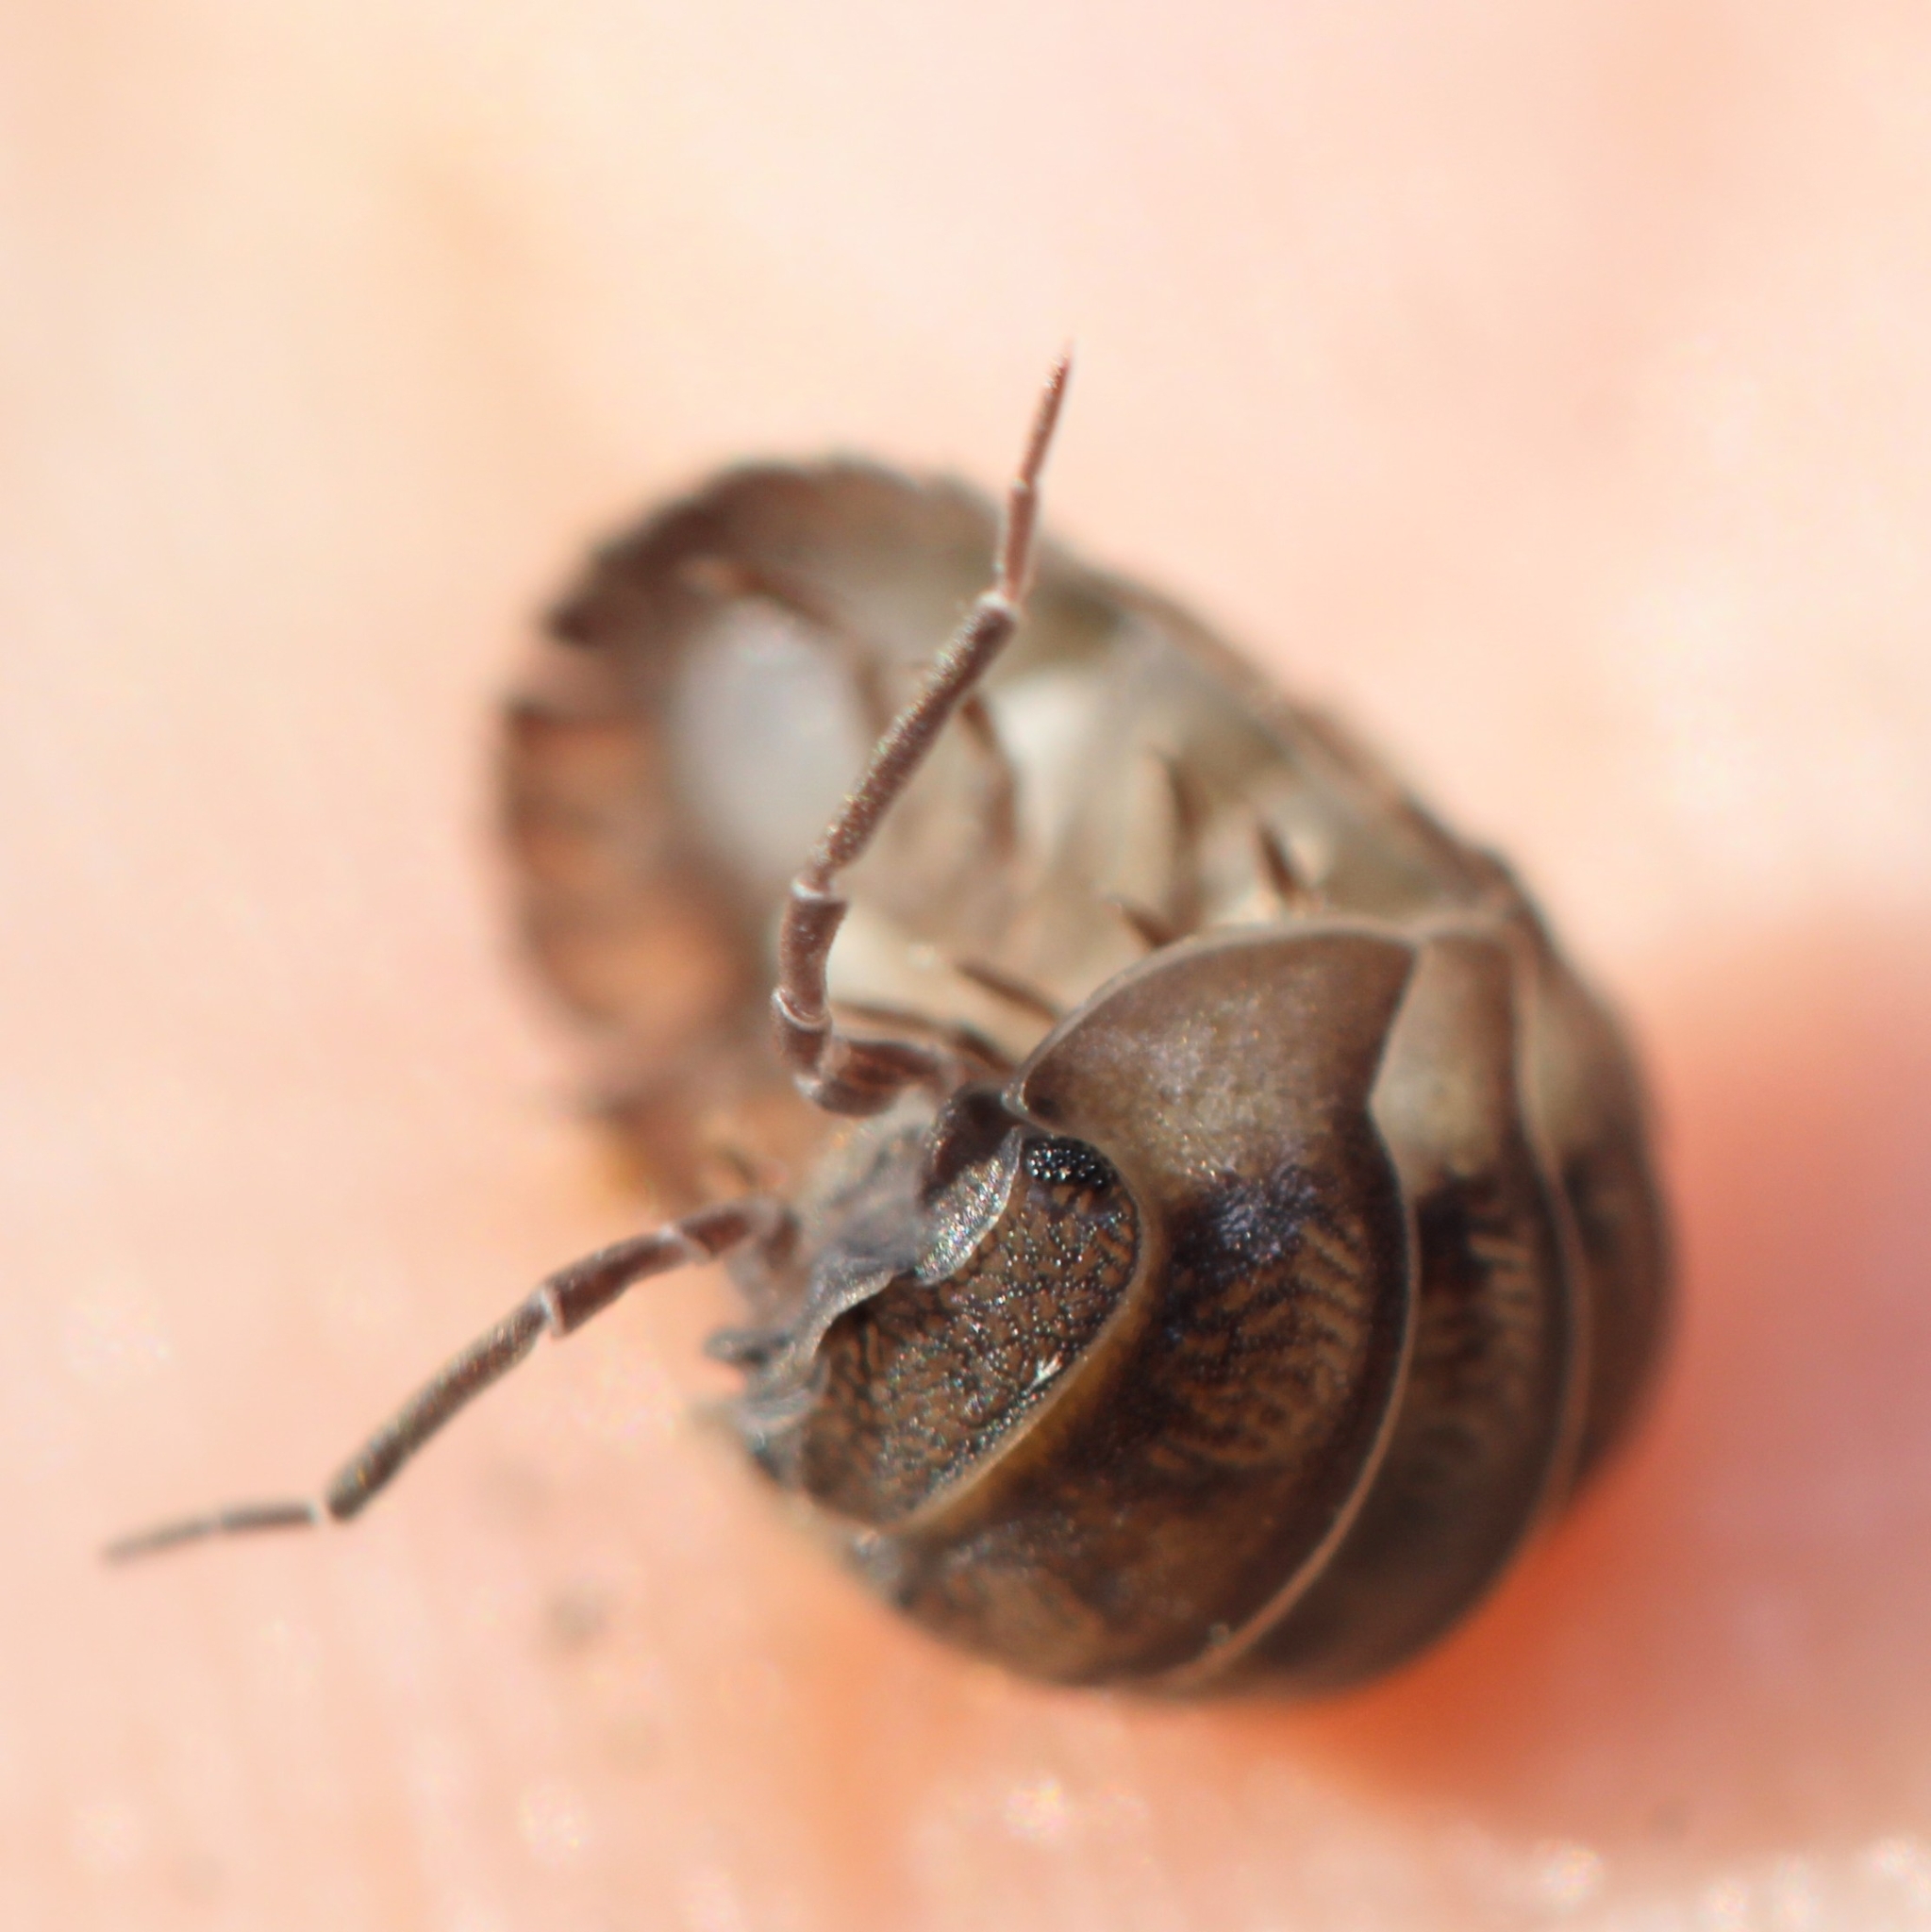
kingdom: Animalia
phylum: Arthropoda
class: Malacostraca
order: Isopoda
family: Armadillidiidae
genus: Armadillidium
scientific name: Armadillidium nasatum
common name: Isopod
